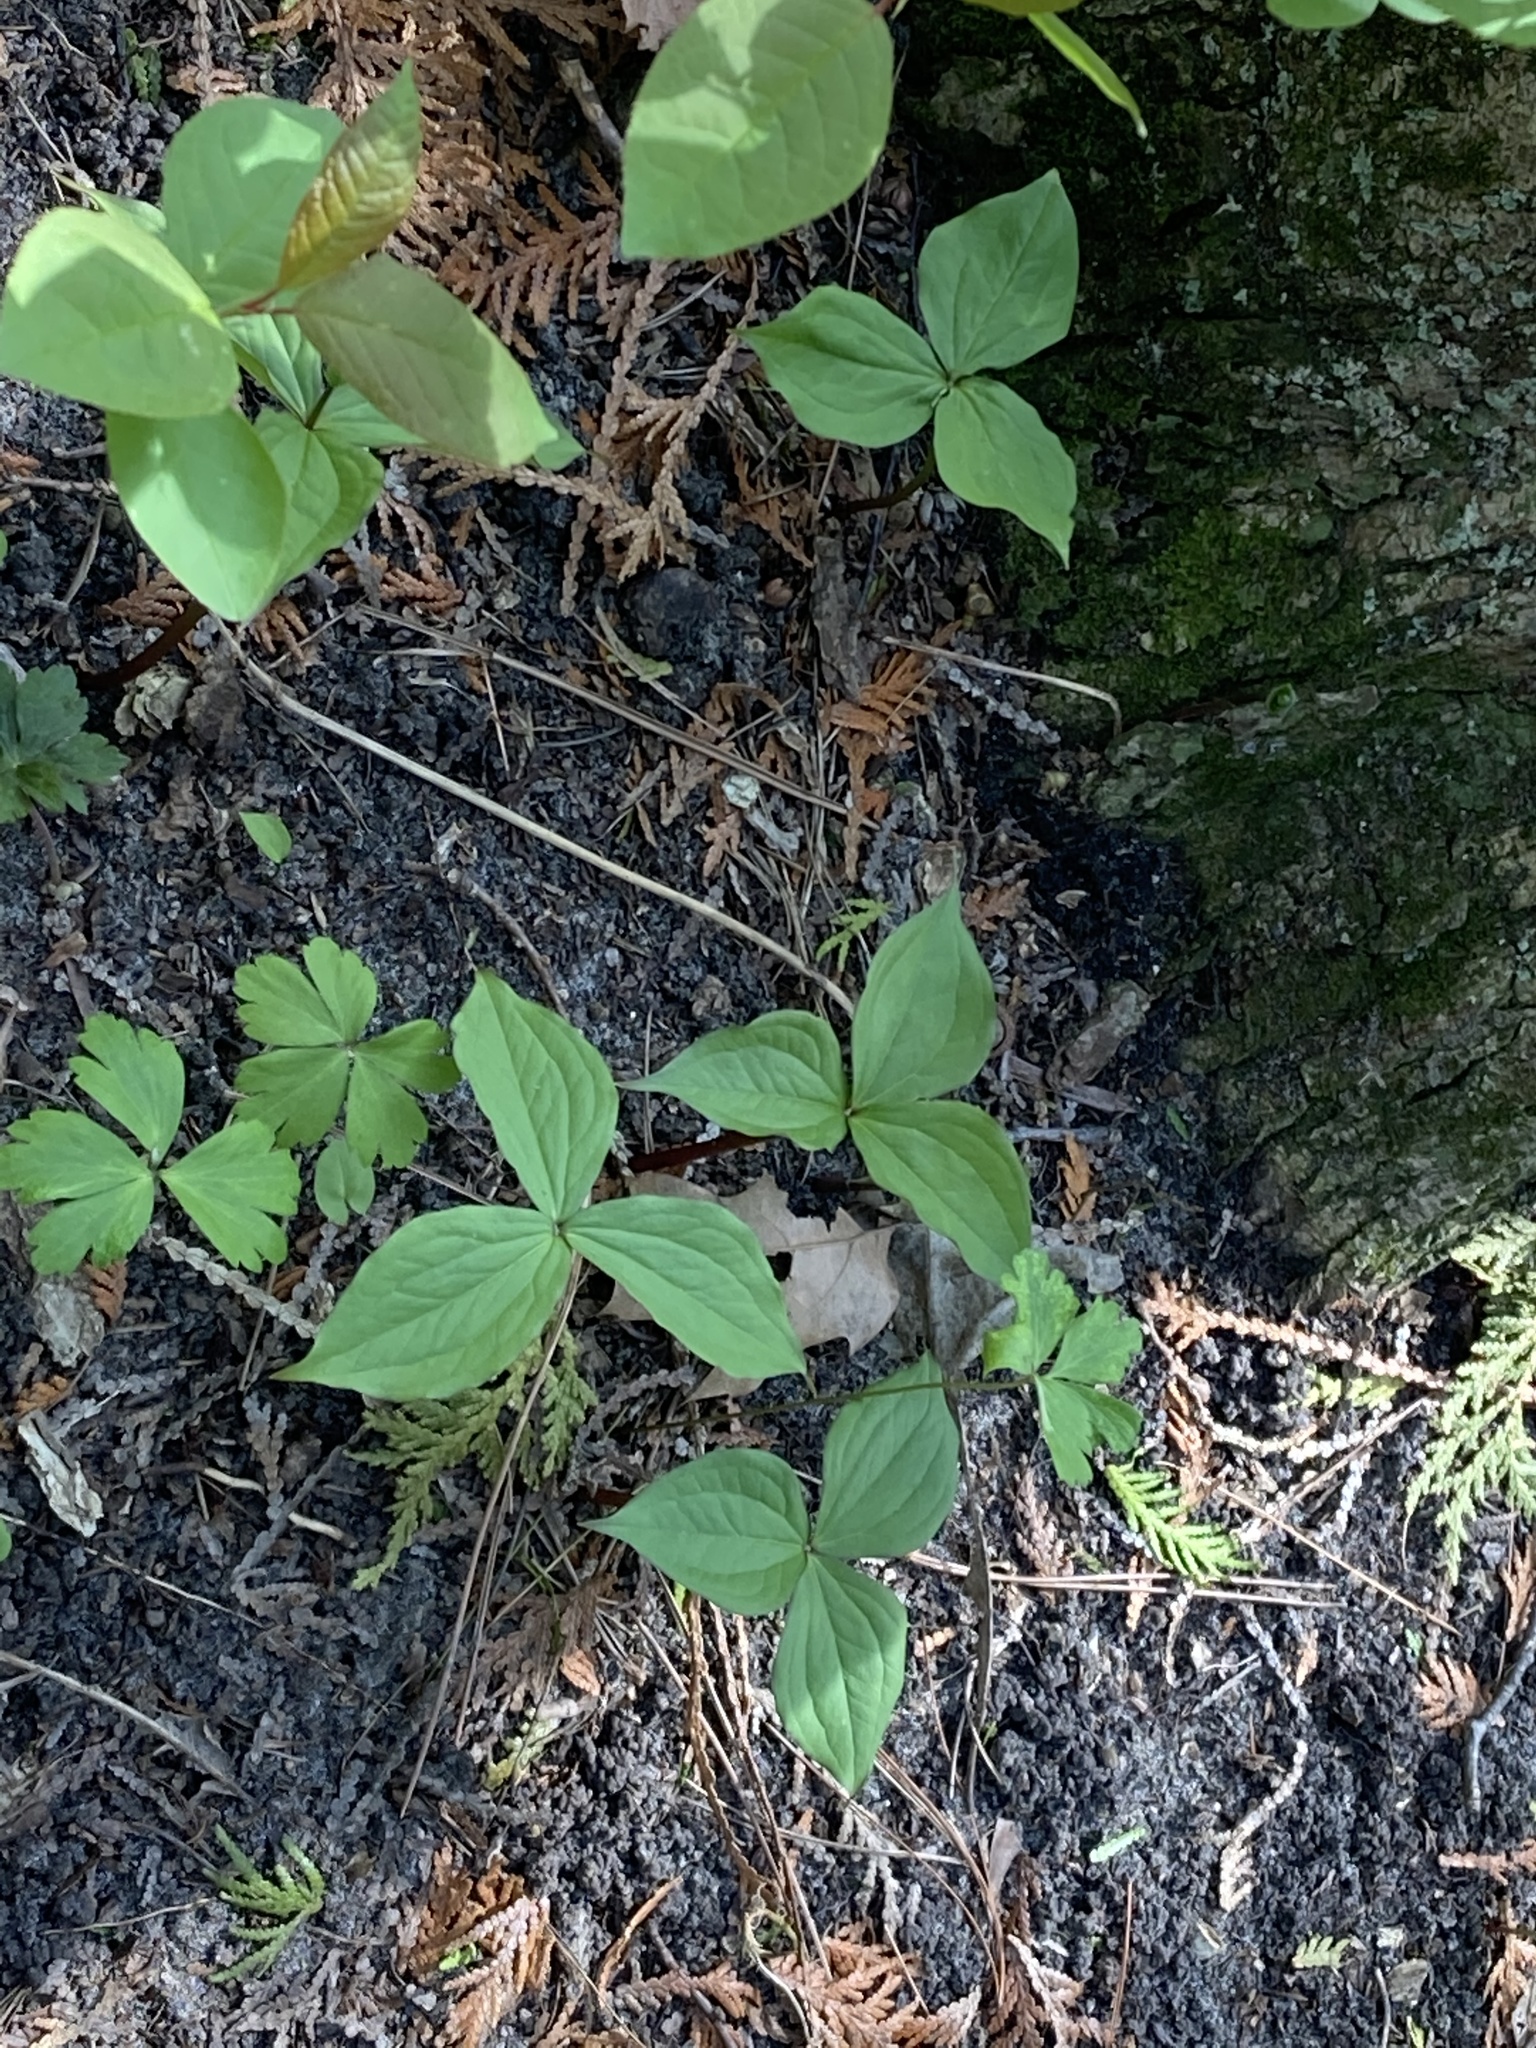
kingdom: Plantae
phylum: Tracheophyta
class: Liliopsida
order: Liliales
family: Melanthiaceae
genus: Trillium
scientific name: Trillium grandiflorum
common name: Great white trillium
